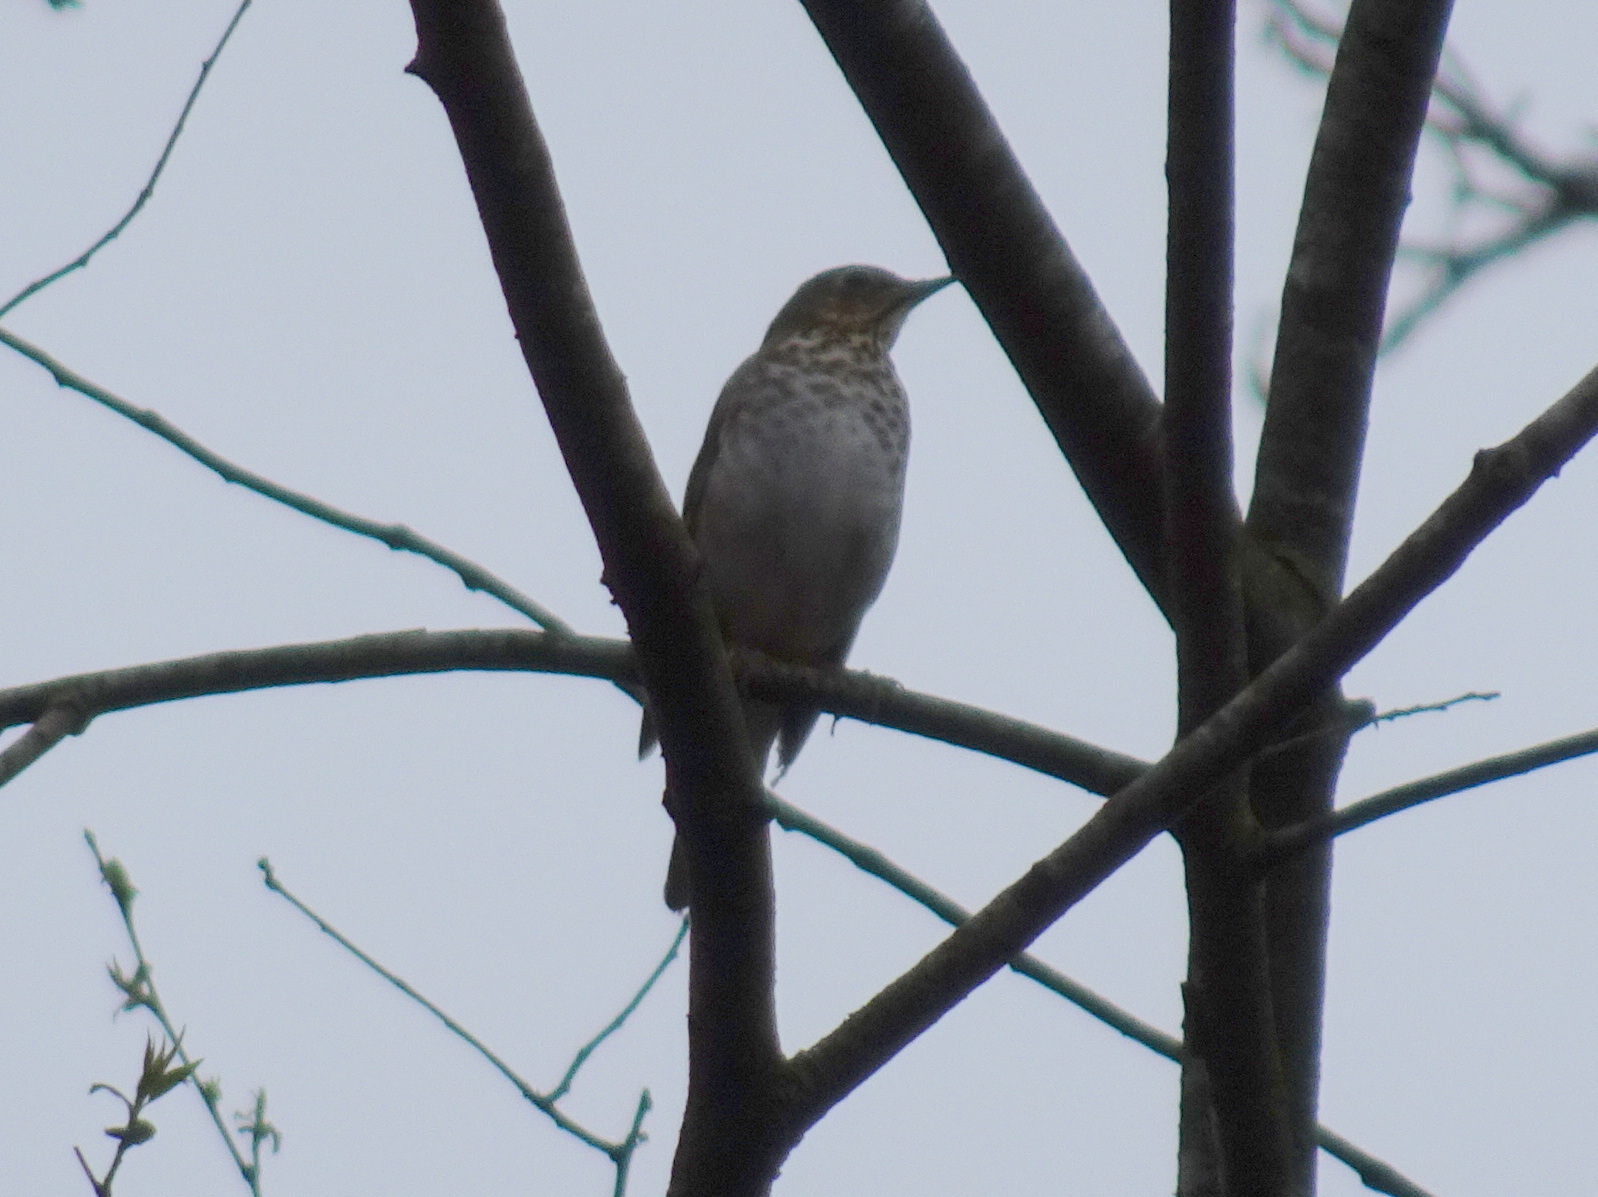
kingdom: Animalia
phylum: Chordata
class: Aves
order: Passeriformes
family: Turdidae
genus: Catharus
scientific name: Catharus ustulatus
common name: Swainson's thrush
